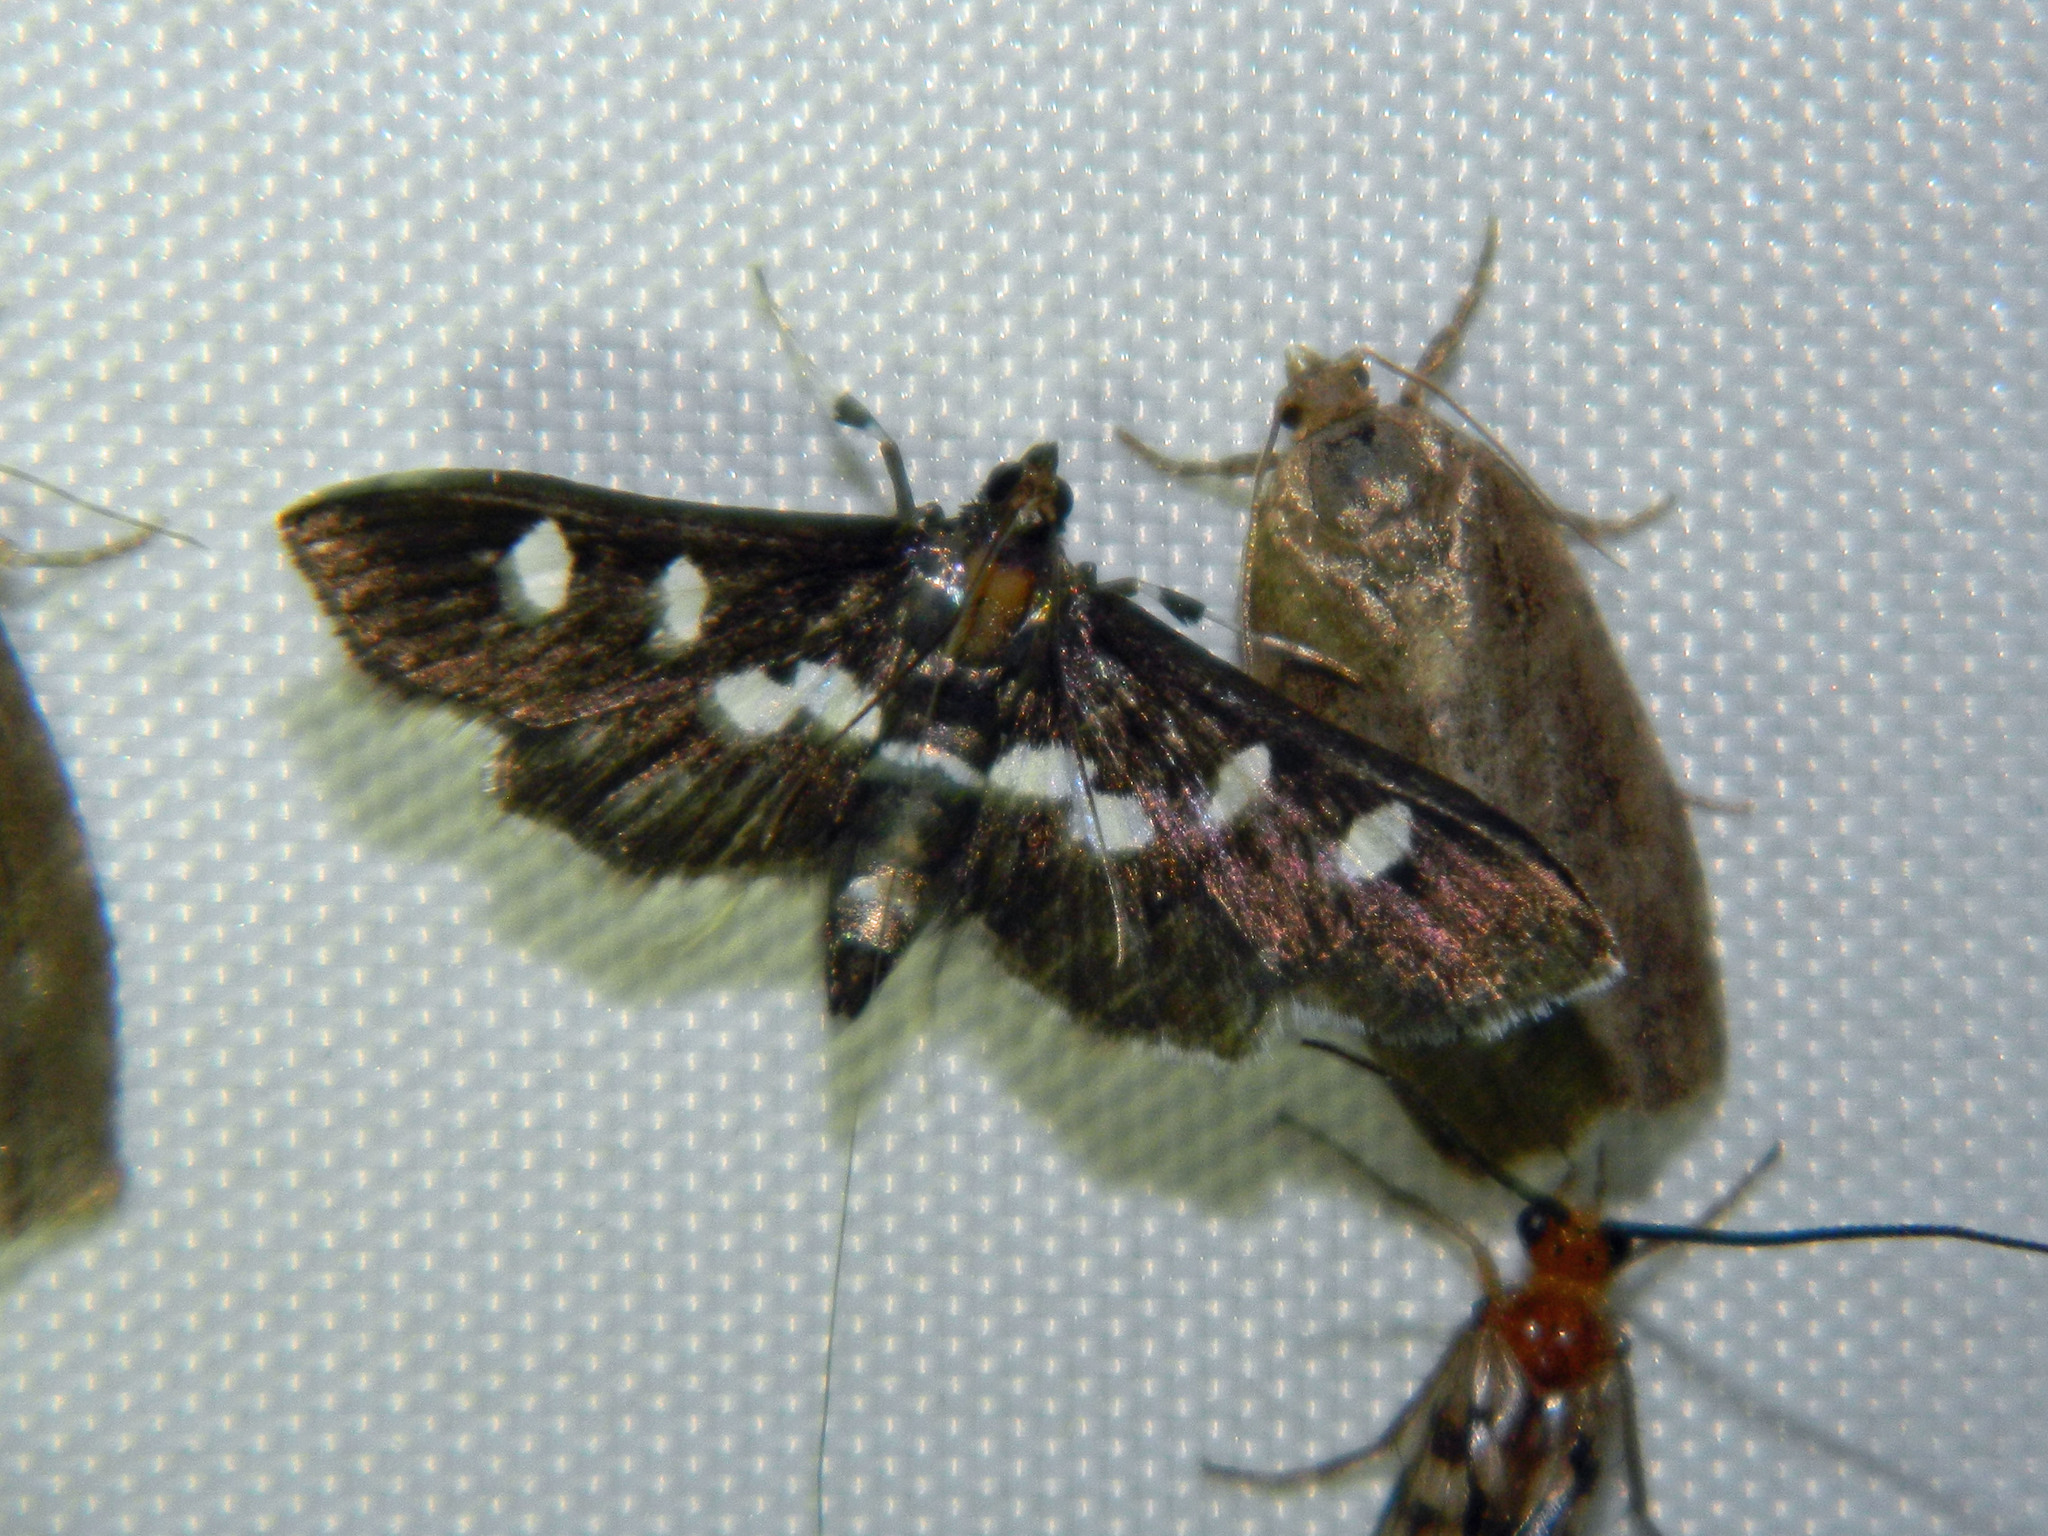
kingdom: Animalia
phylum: Arthropoda
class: Insecta
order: Lepidoptera
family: Crambidae
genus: Desmia
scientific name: Desmia funeralis
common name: Grape leaf folder moth
